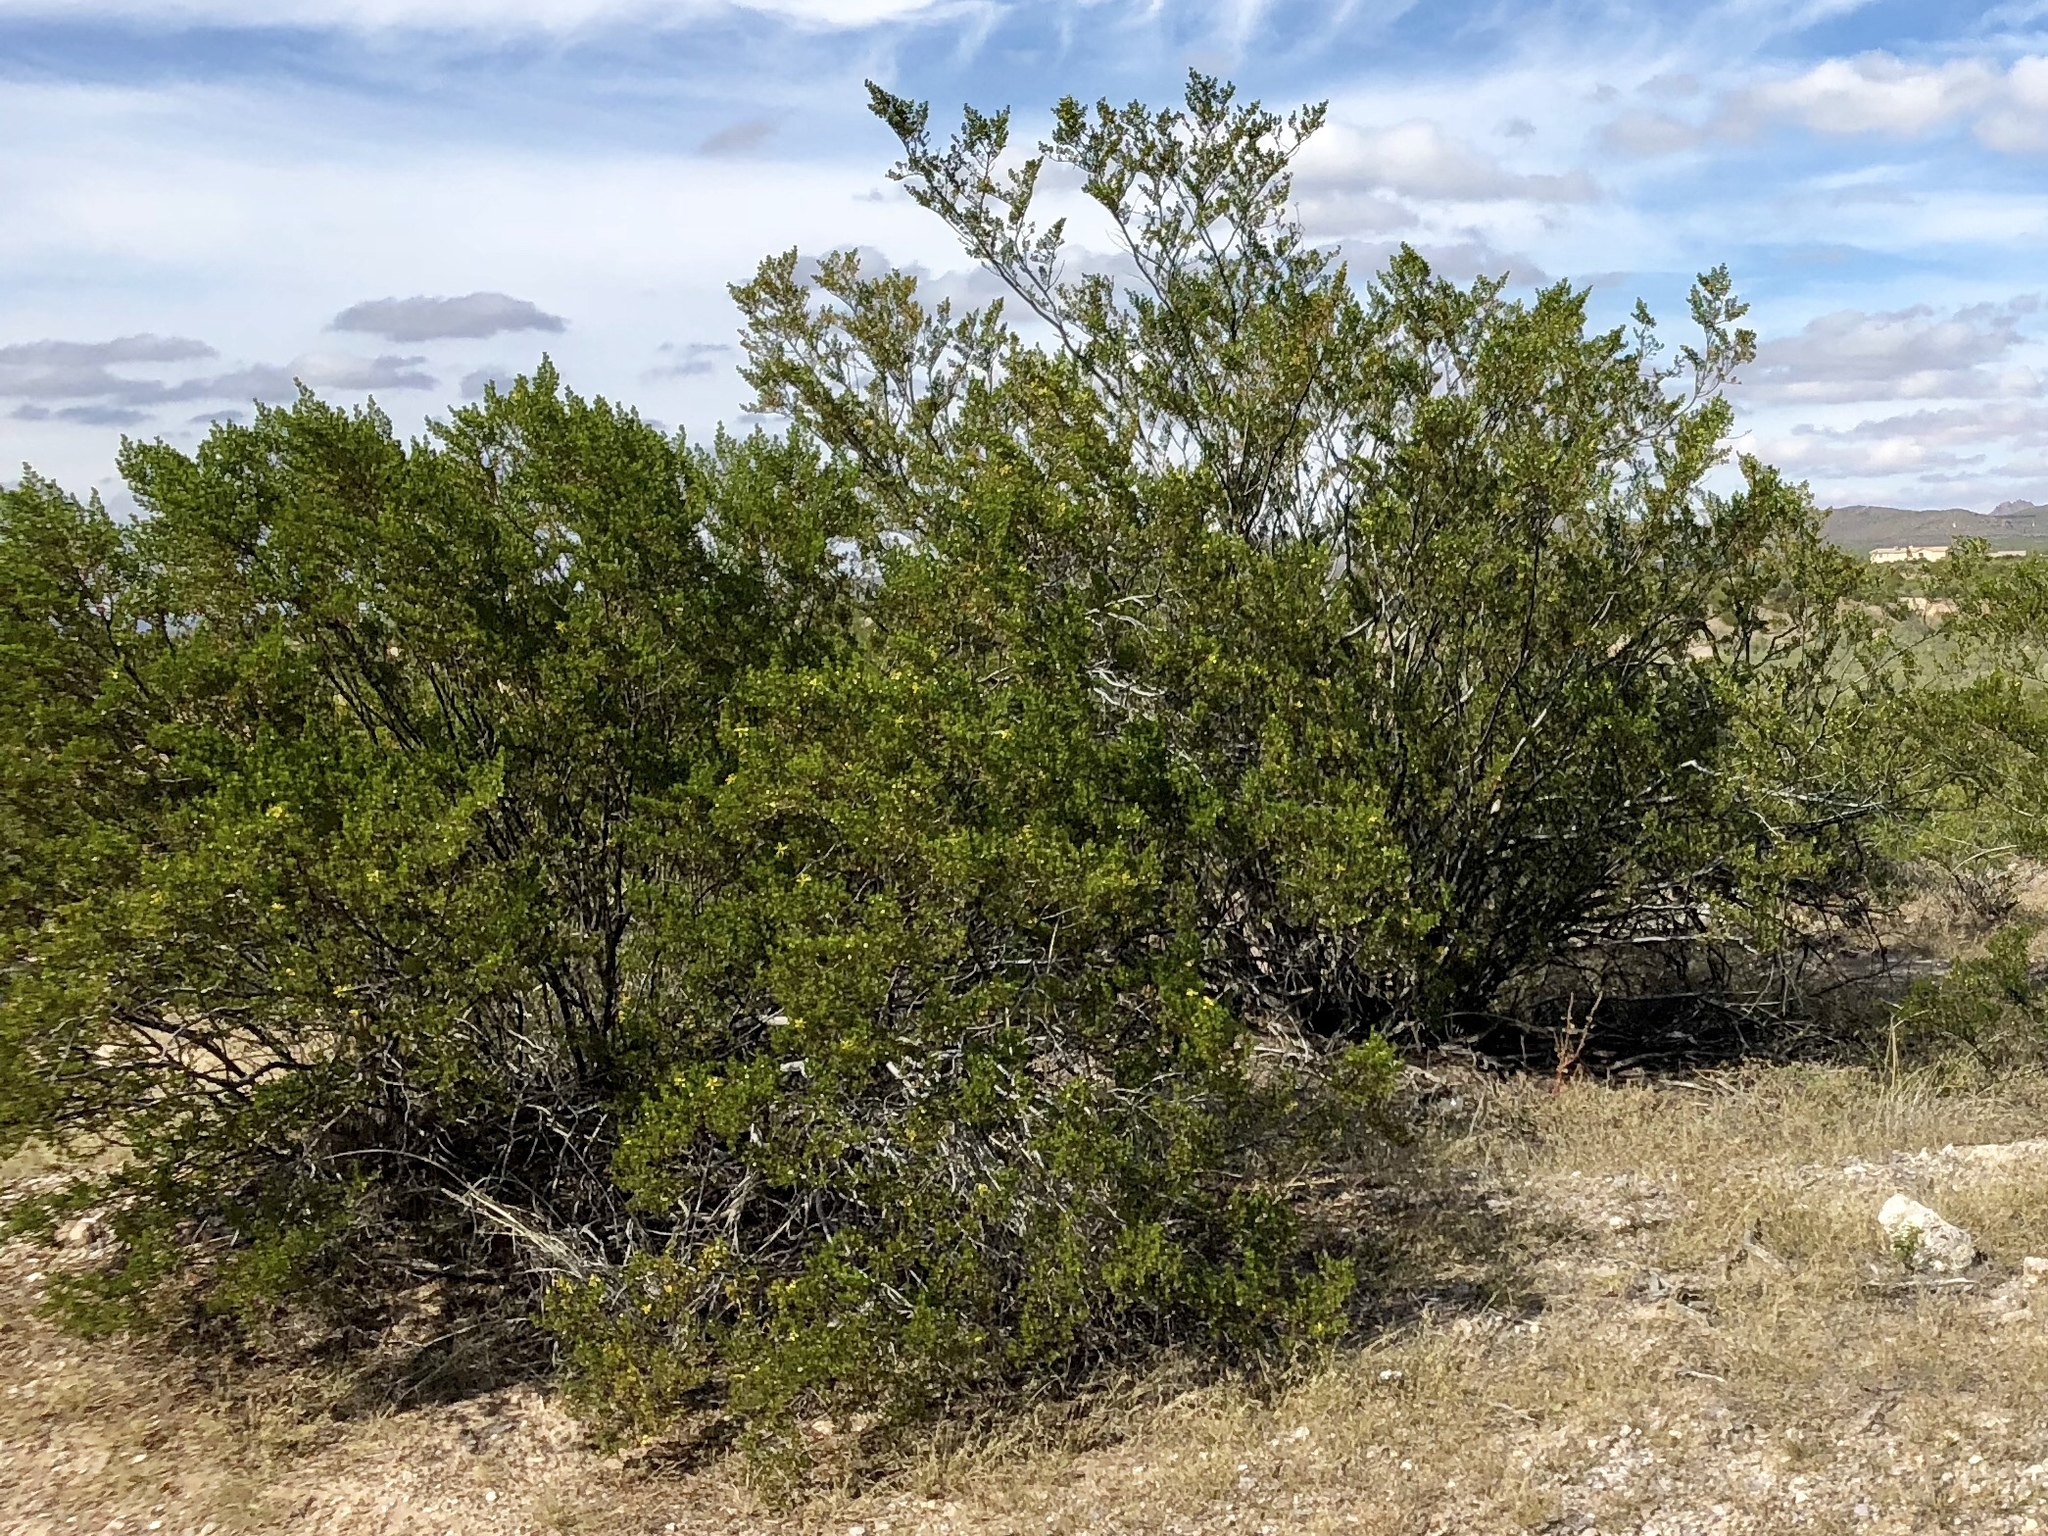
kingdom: Plantae
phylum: Tracheophyta
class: Magnoliopsida
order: Zygophyllales
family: Zygophyllaceae
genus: Larrea
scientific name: Larrea tridentata
